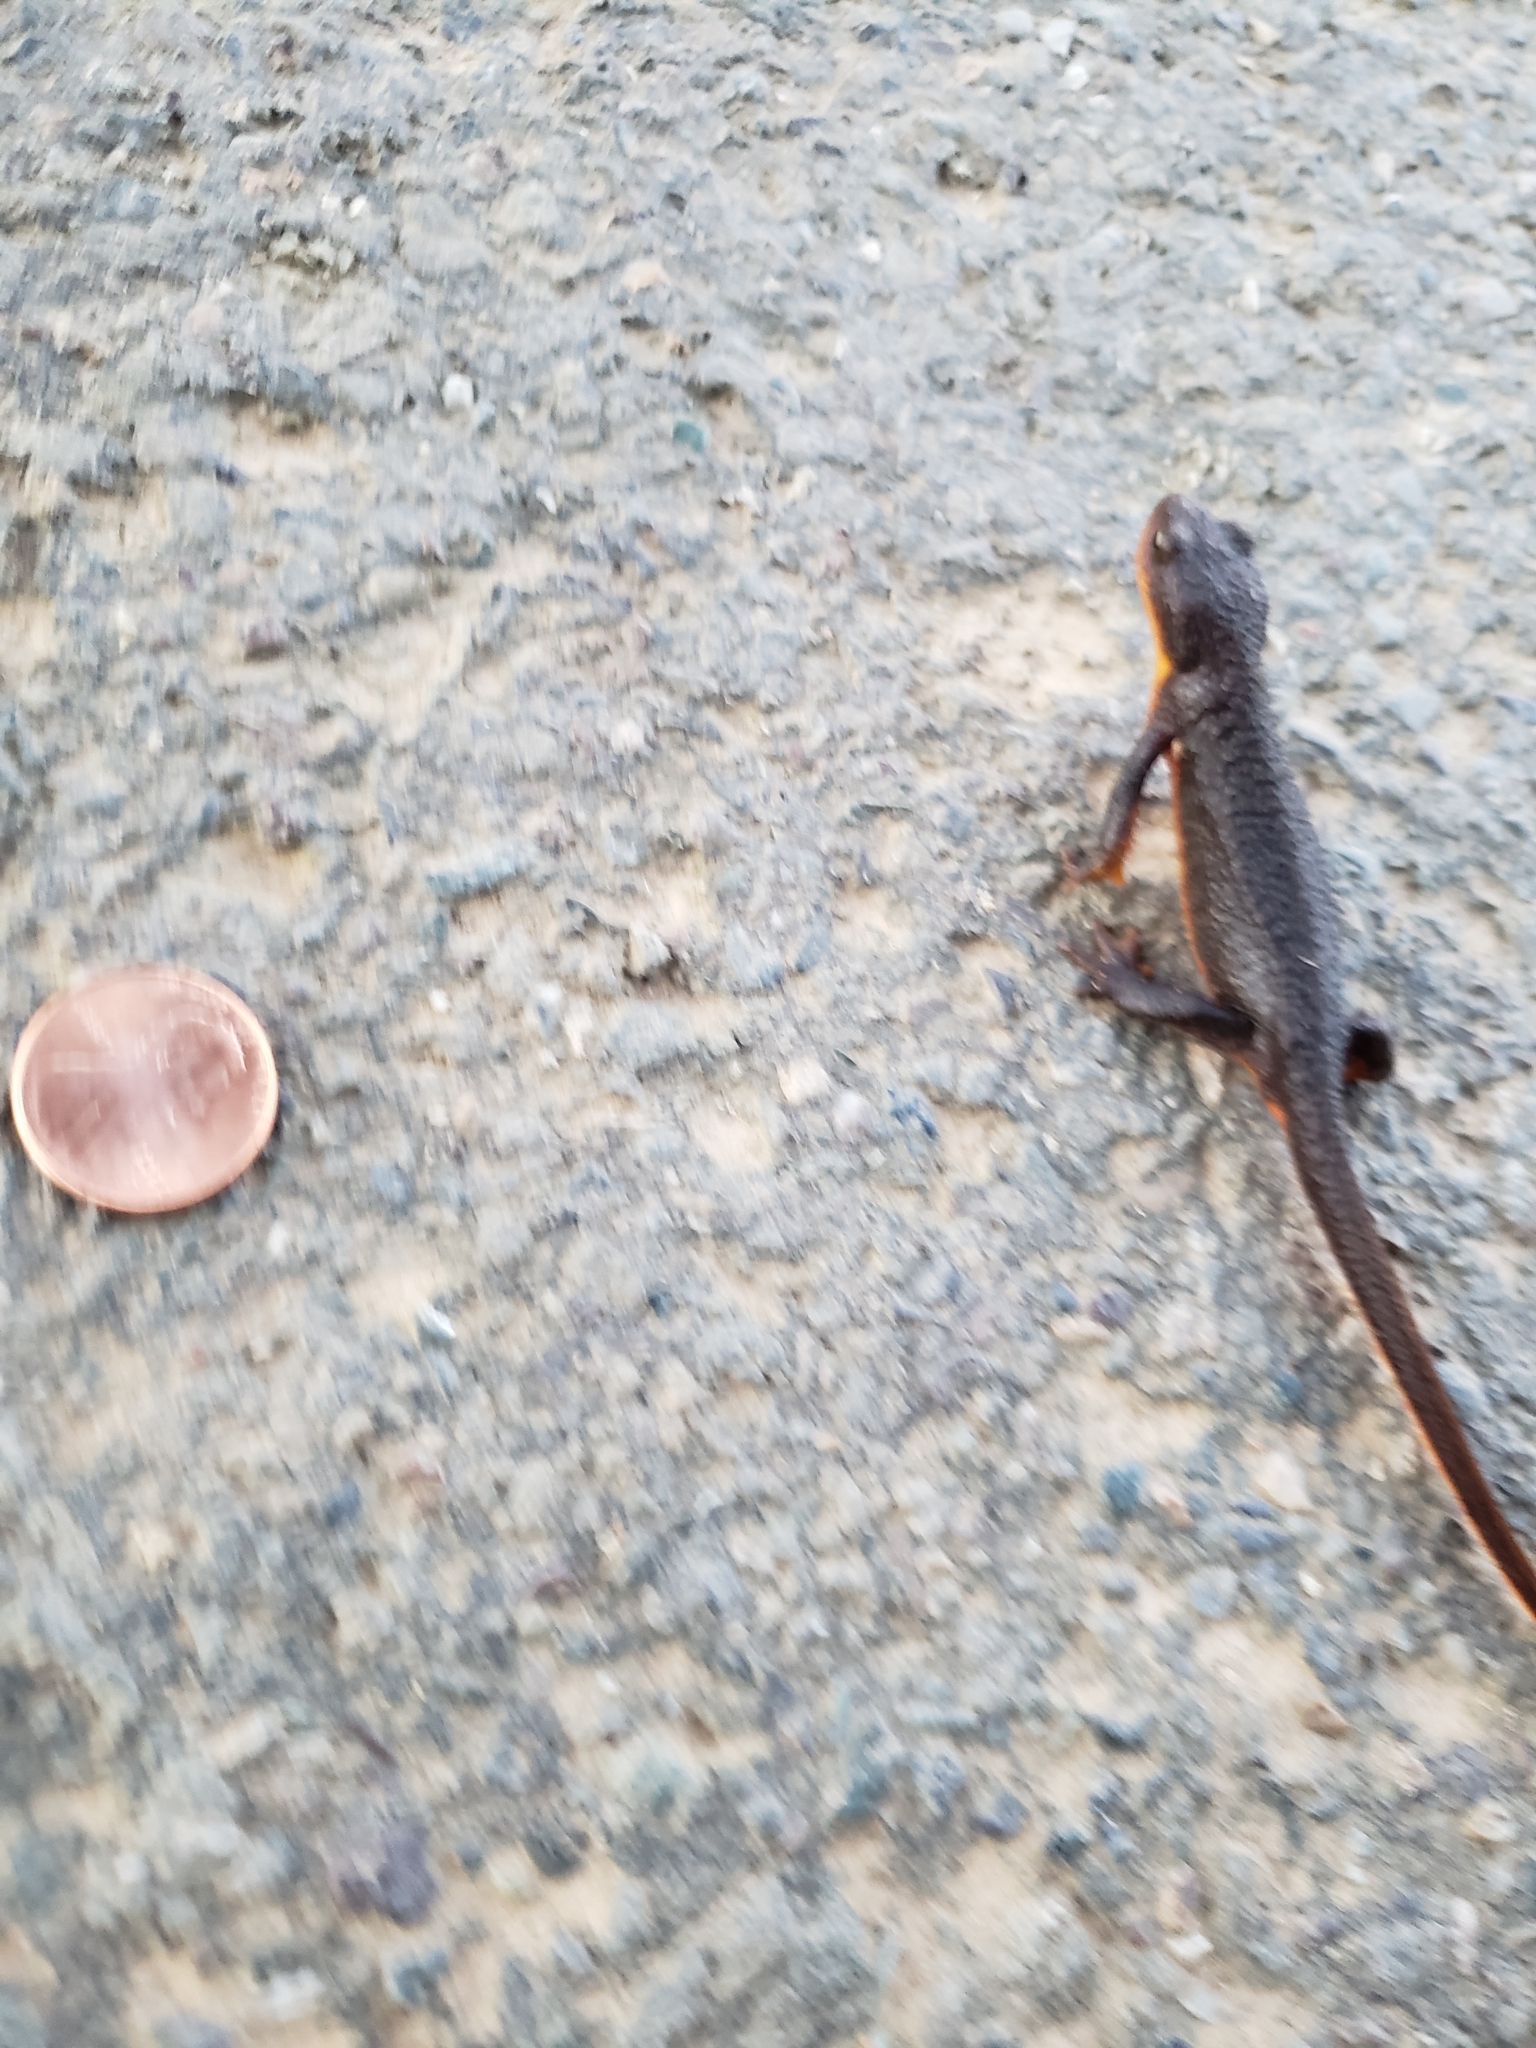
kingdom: Animalia
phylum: Chordata
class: Amphibia
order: Caudata
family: Salamandridae
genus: Taricha
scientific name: Taricha granulosa
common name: Roughskin newt
